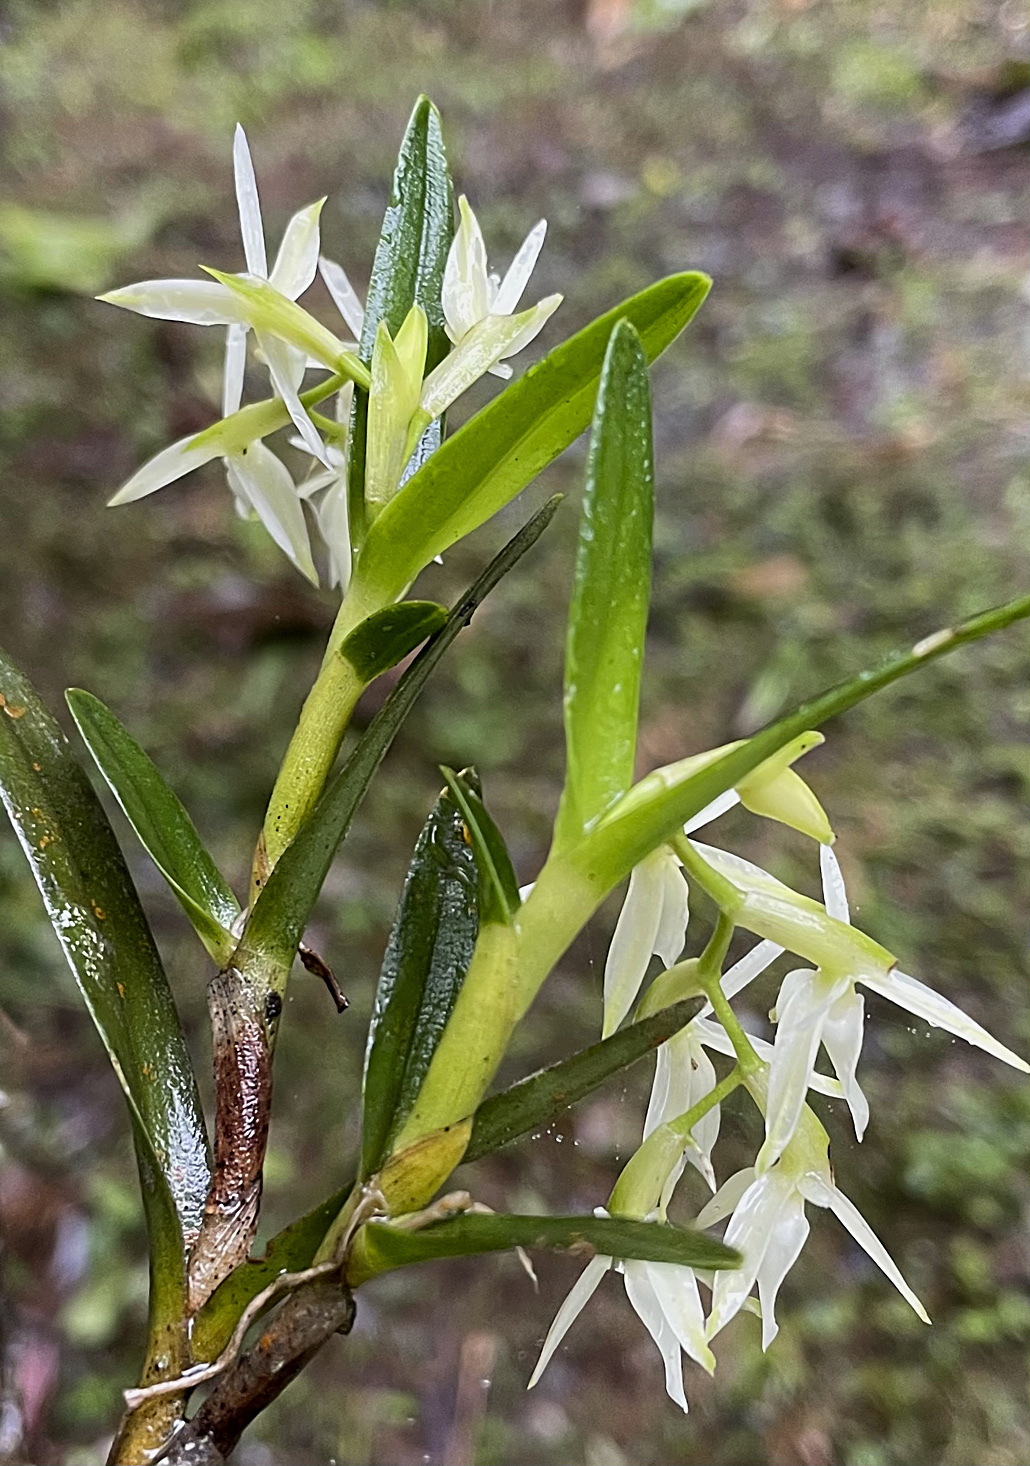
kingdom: Plantae
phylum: Tracheophyta
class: Liliopsida
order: Asparagales
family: Orchidaceae
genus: Epidendrum
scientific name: Epidendrum mixtum
